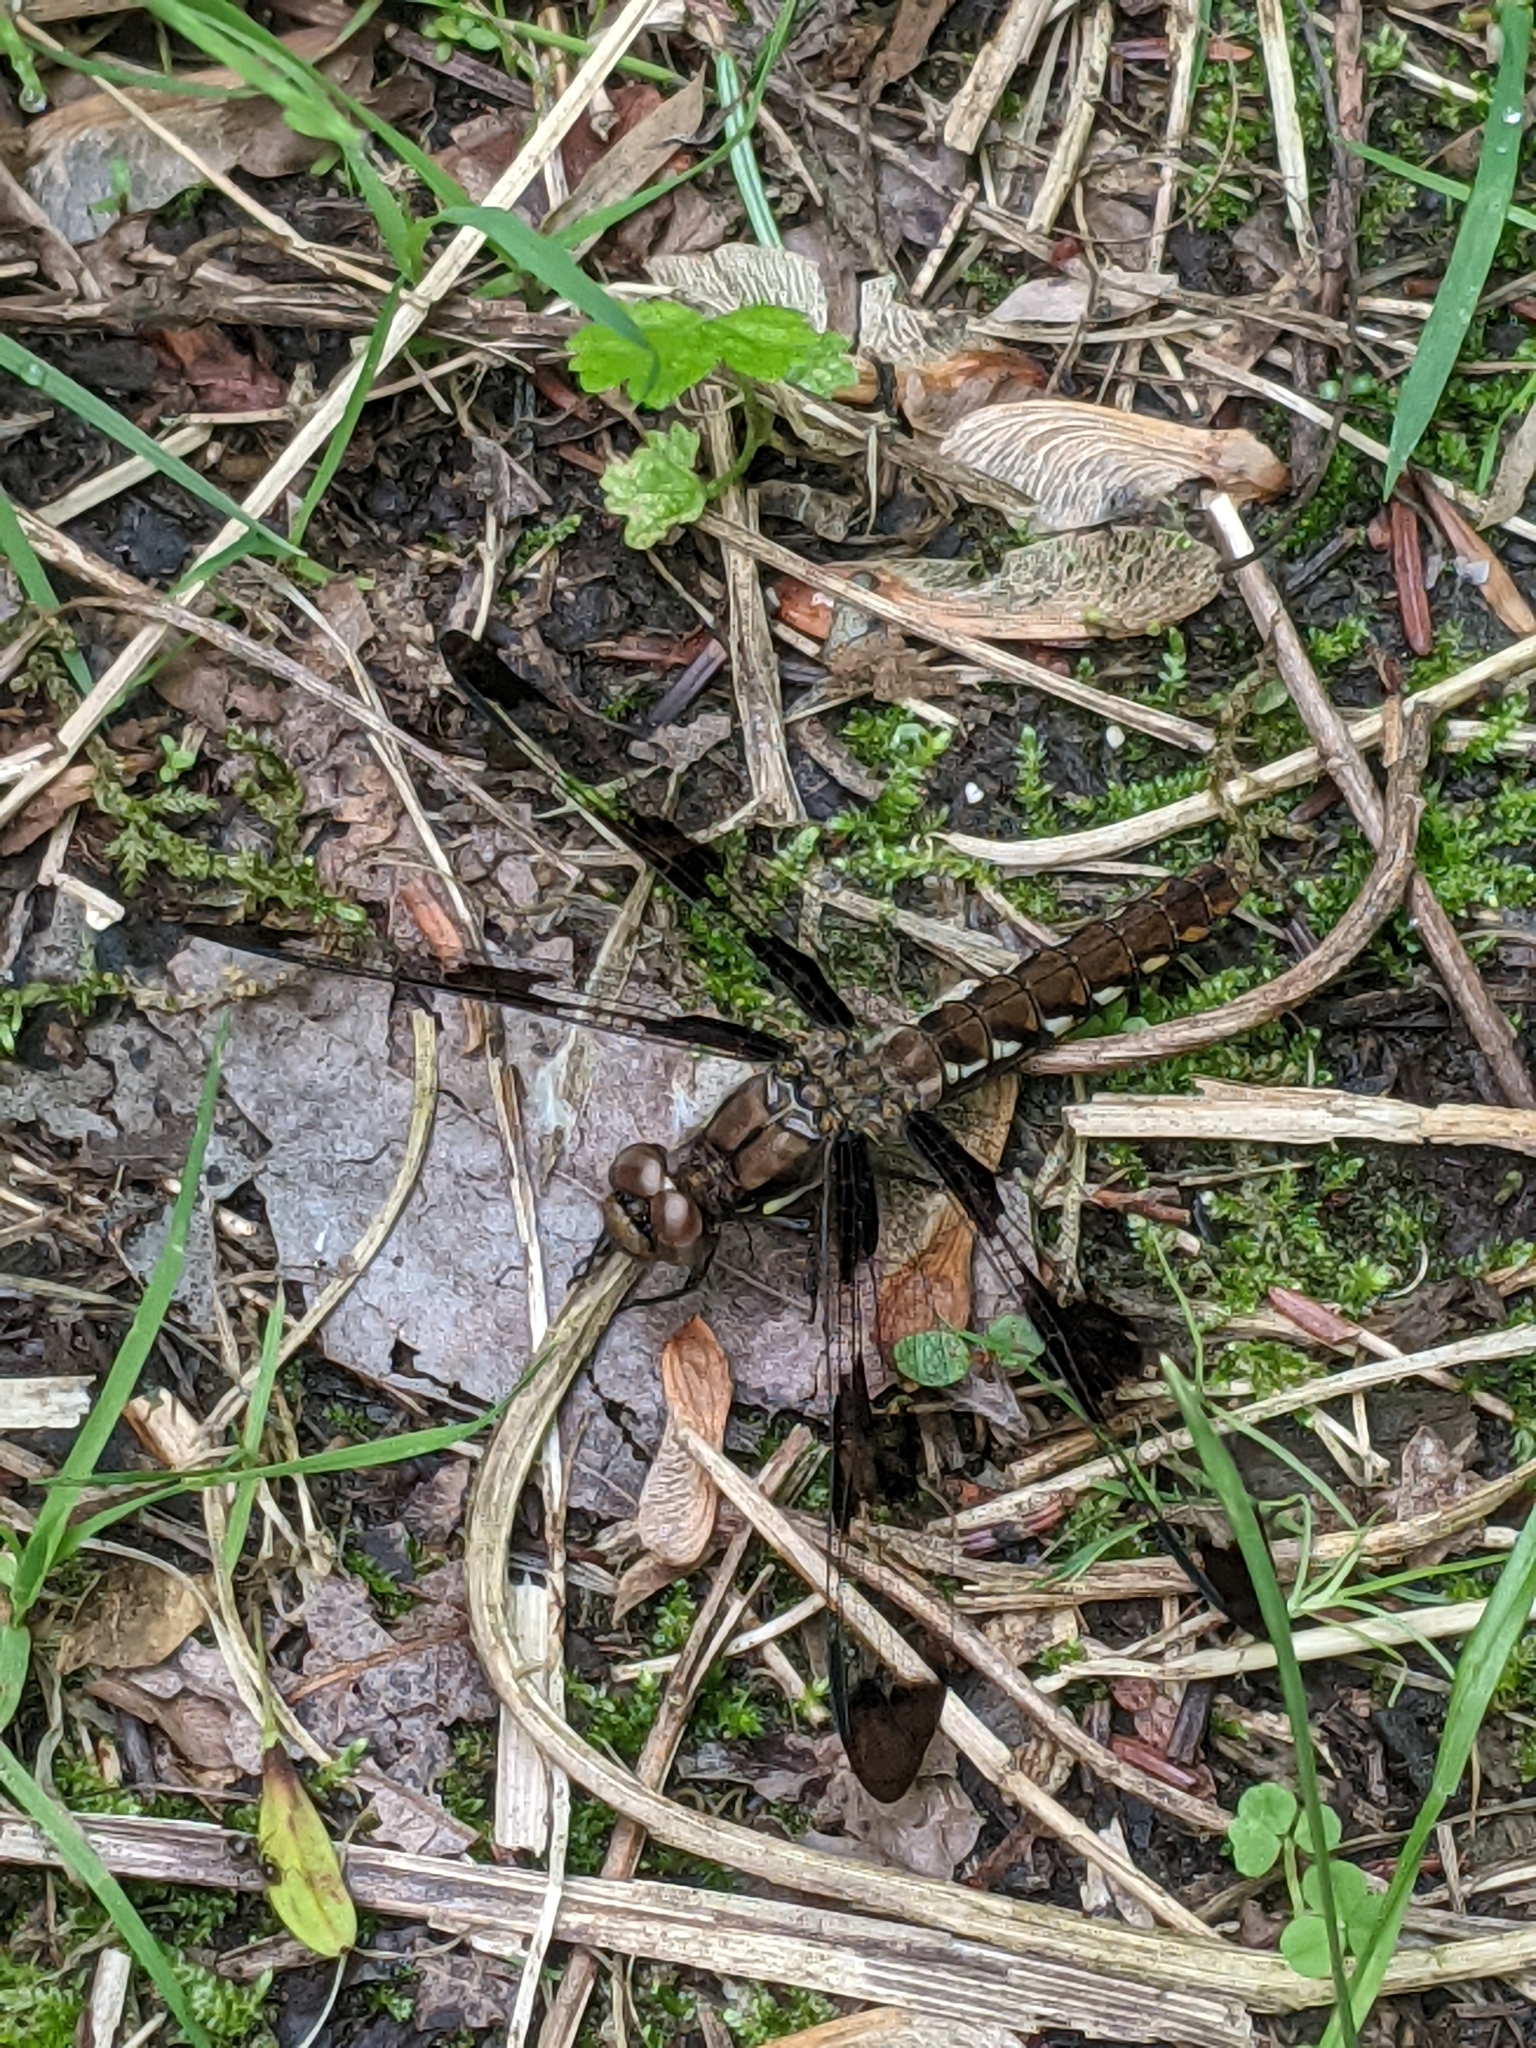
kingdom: Animalia
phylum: Arthropoda
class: Insecta
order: Odonata
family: Libellulidae
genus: Plathemis
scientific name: Plathemis lydia
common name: Common whitetail
